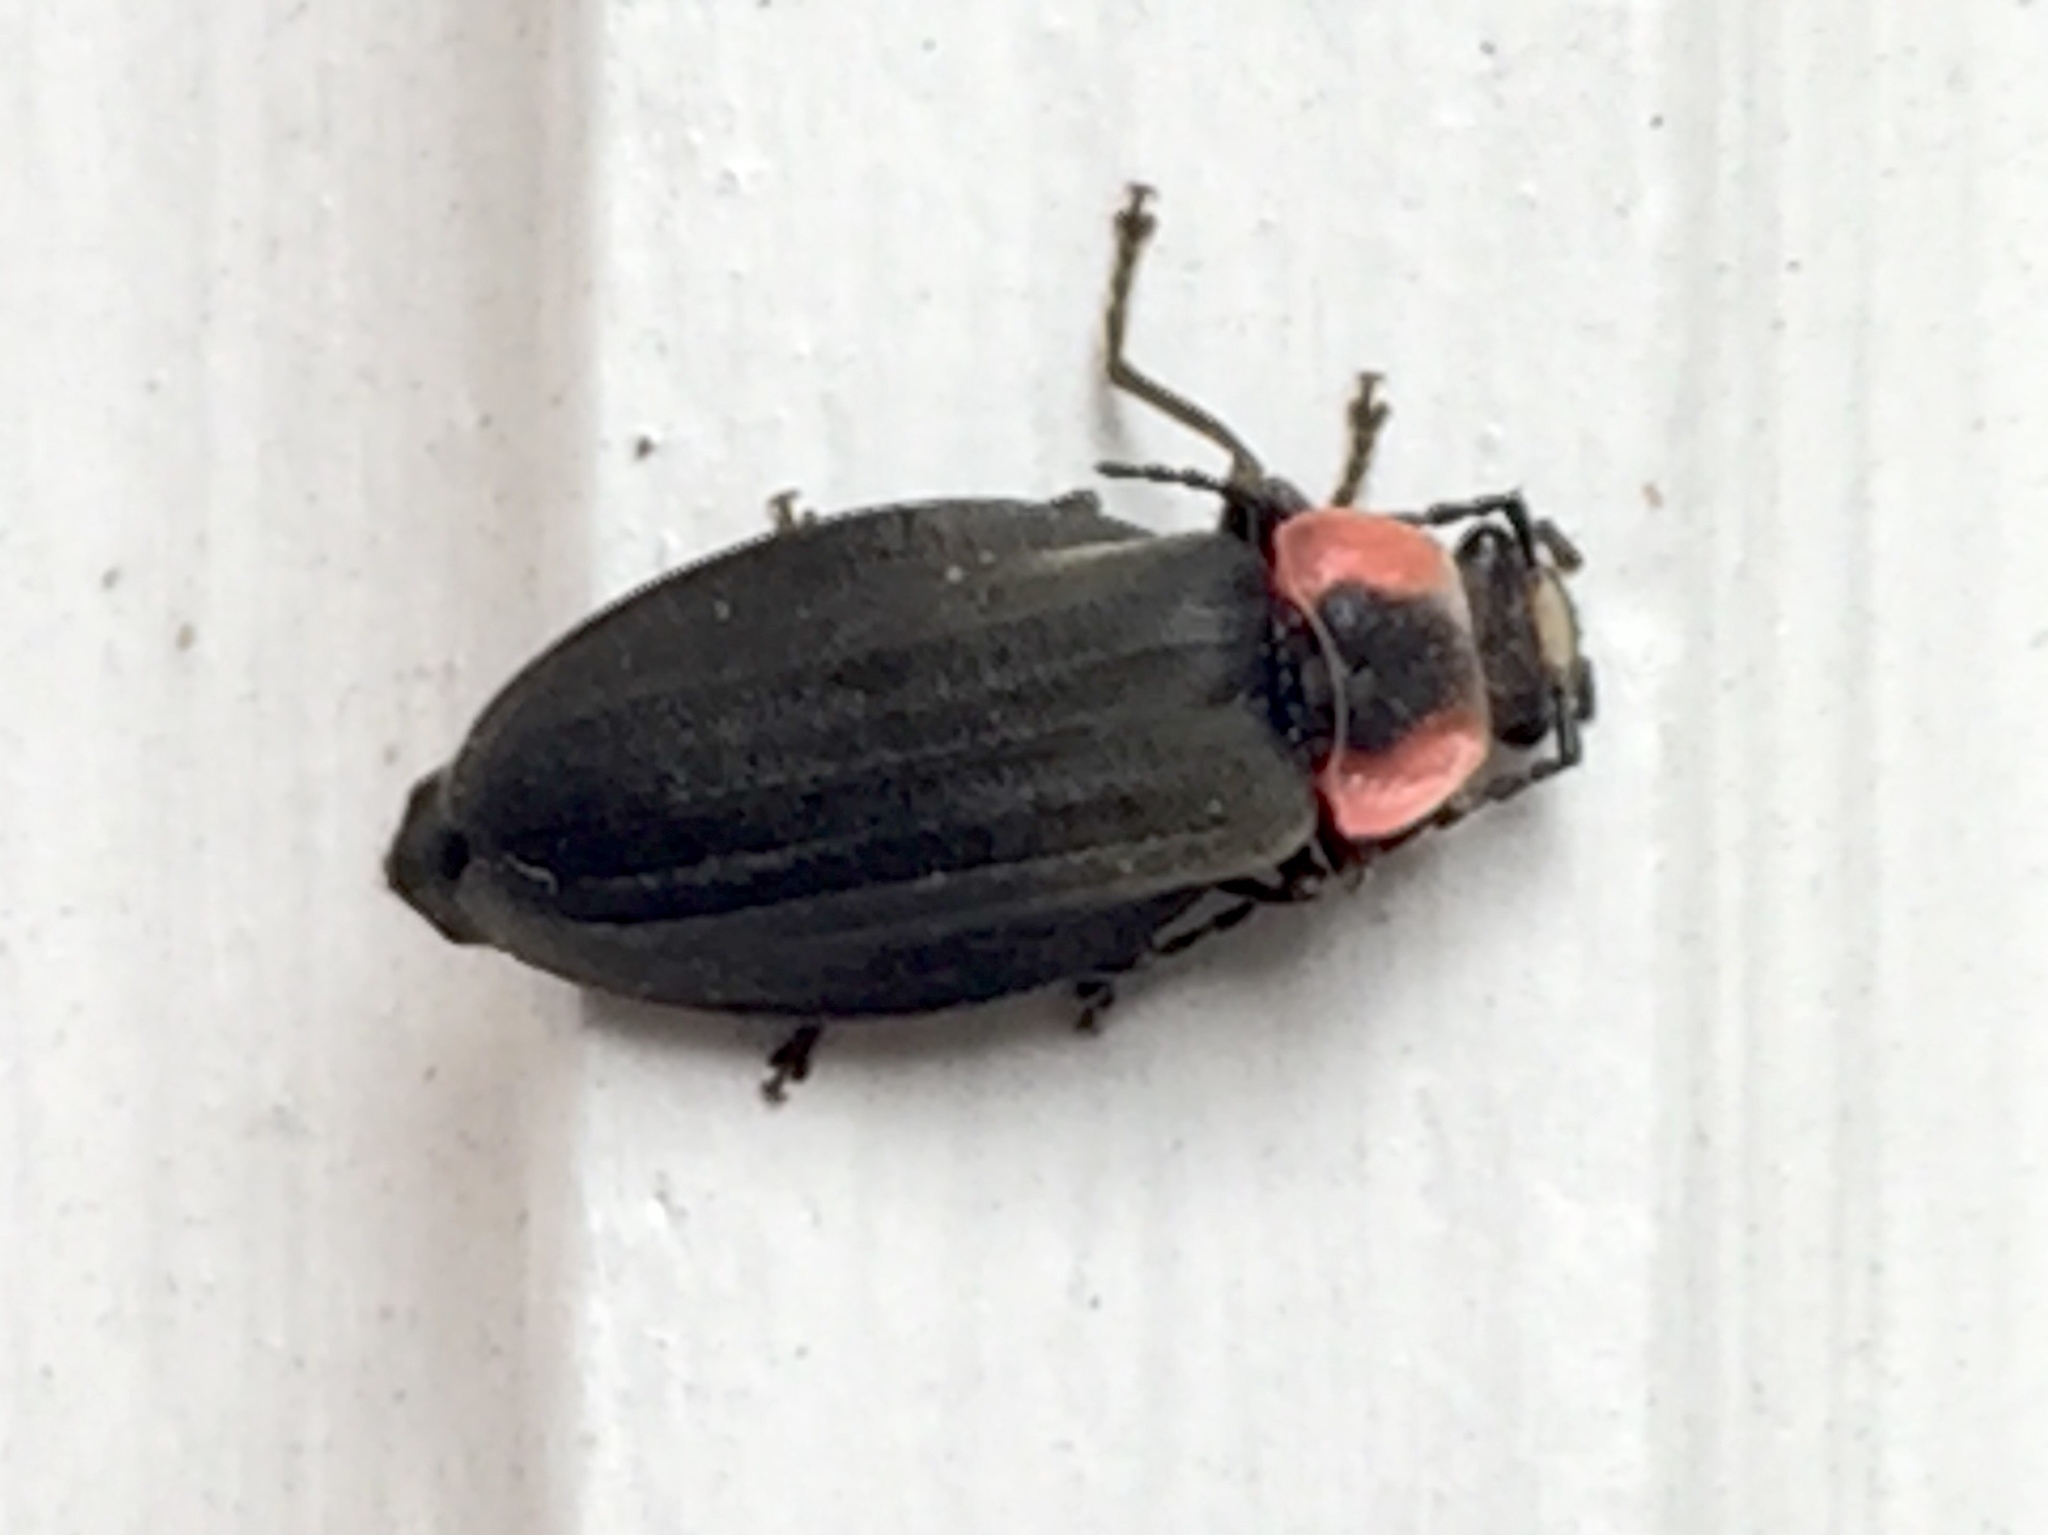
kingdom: Animalia
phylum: Arthropoda
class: Insecta
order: Coleoptera
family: Cantharidae
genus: Podabrus
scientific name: Podabrus tricostatus
